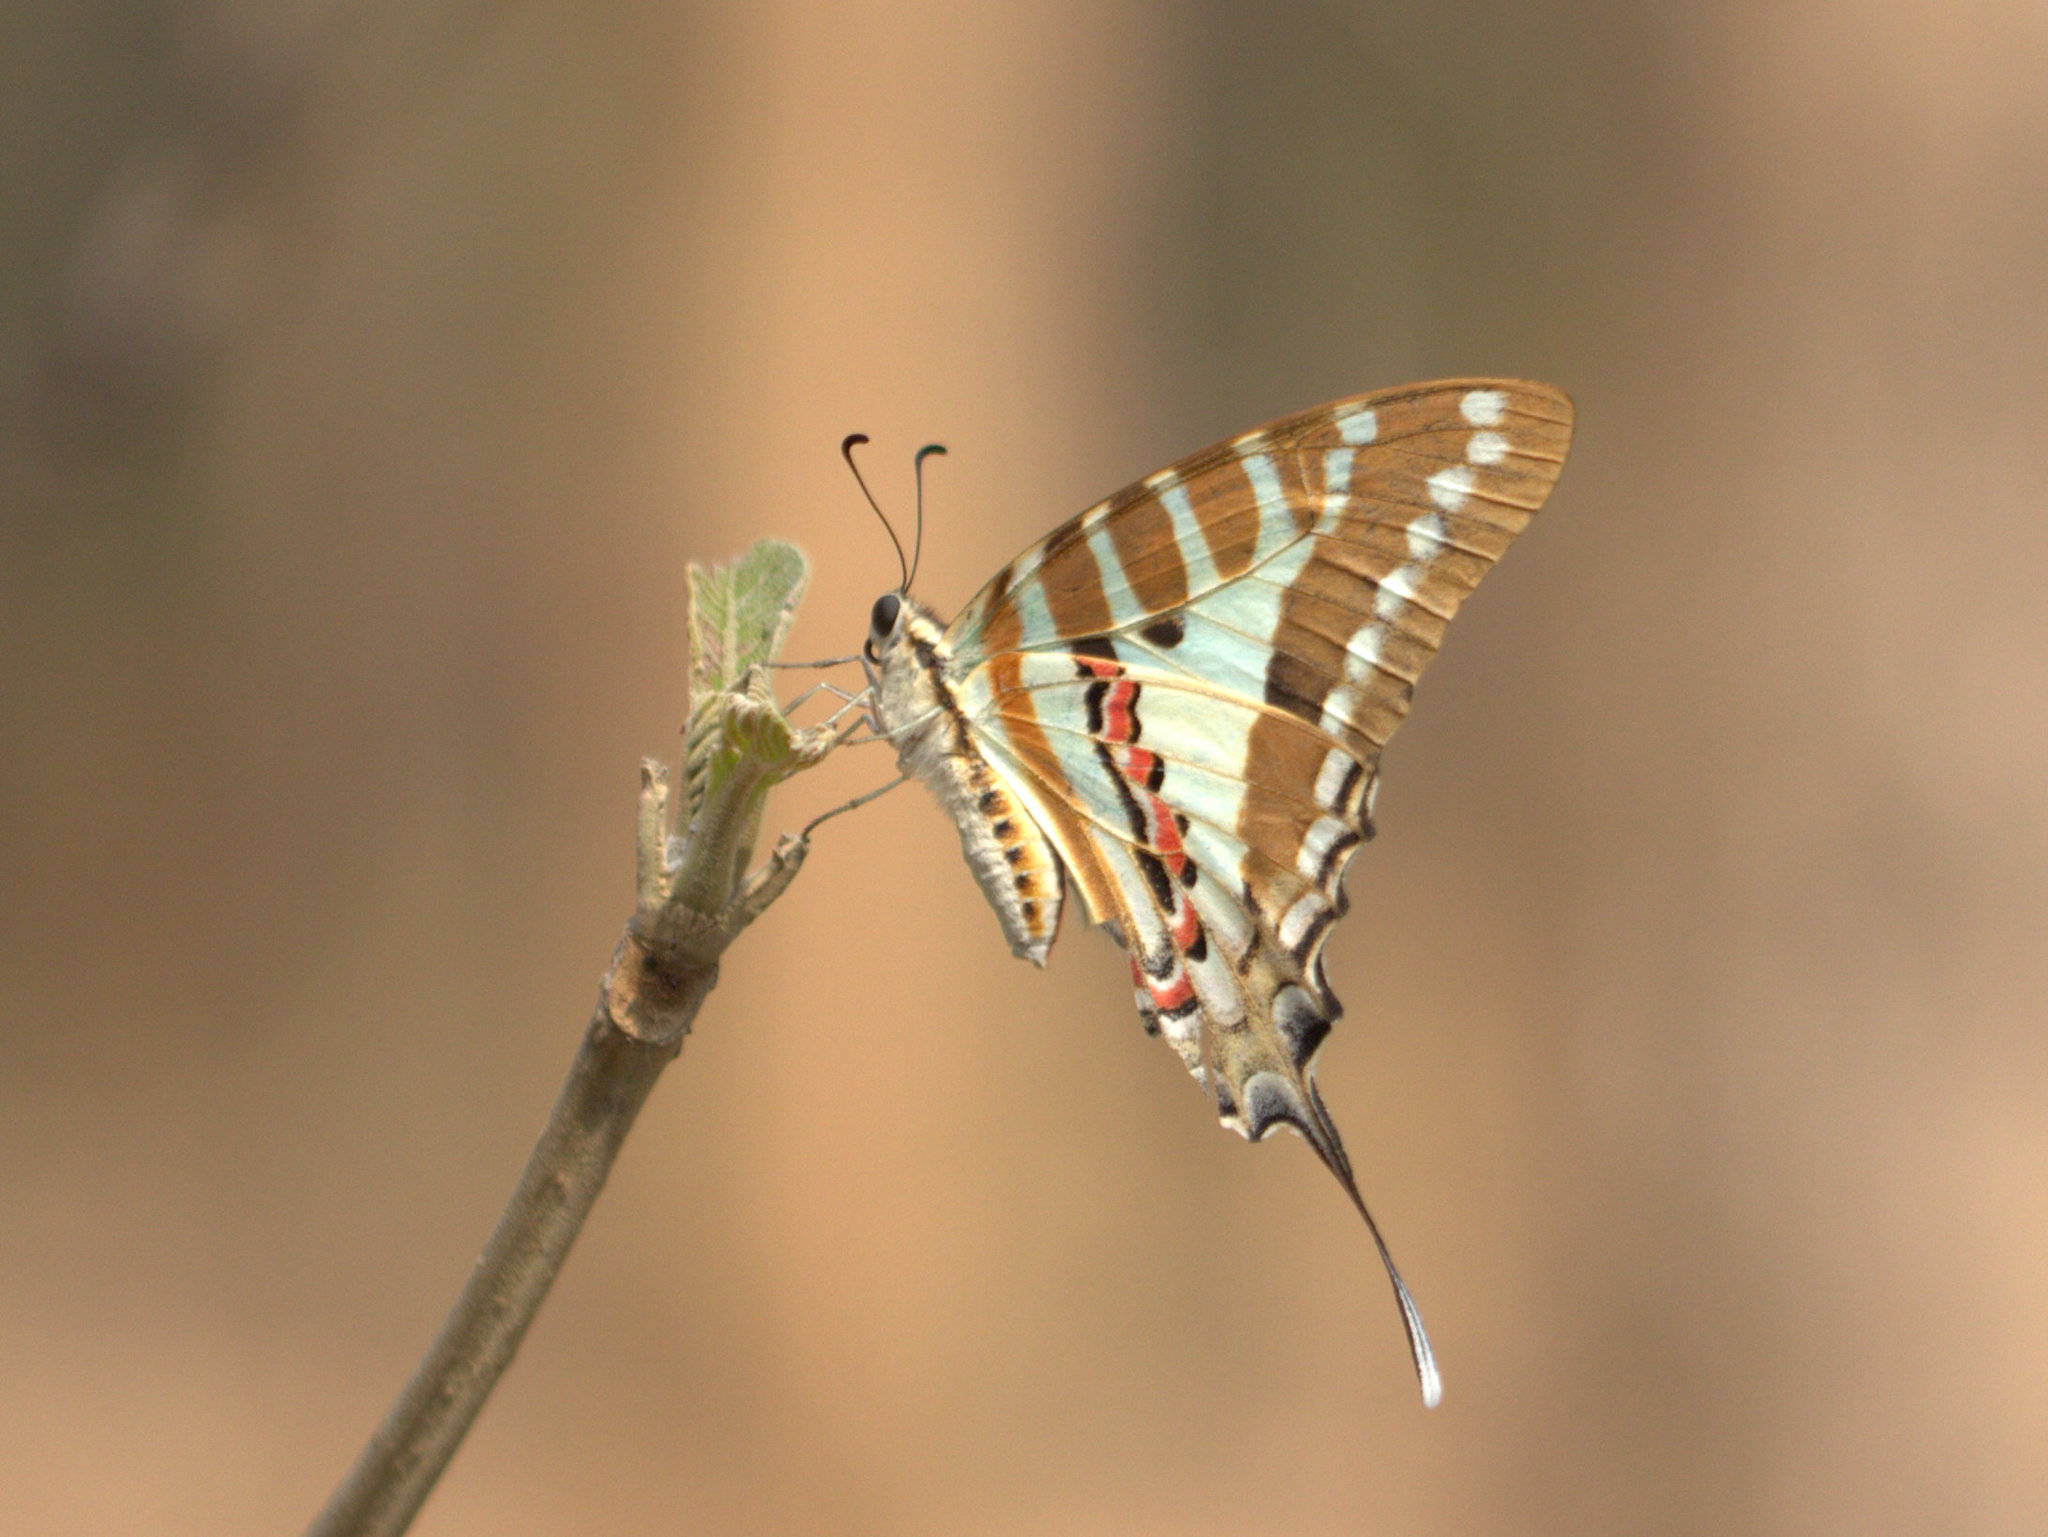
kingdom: Animalia
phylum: Arthropoda
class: Insecta
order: Lepidoptera
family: Papilionidae
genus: Graphium
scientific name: Graphium nomius
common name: Spot swordtail
